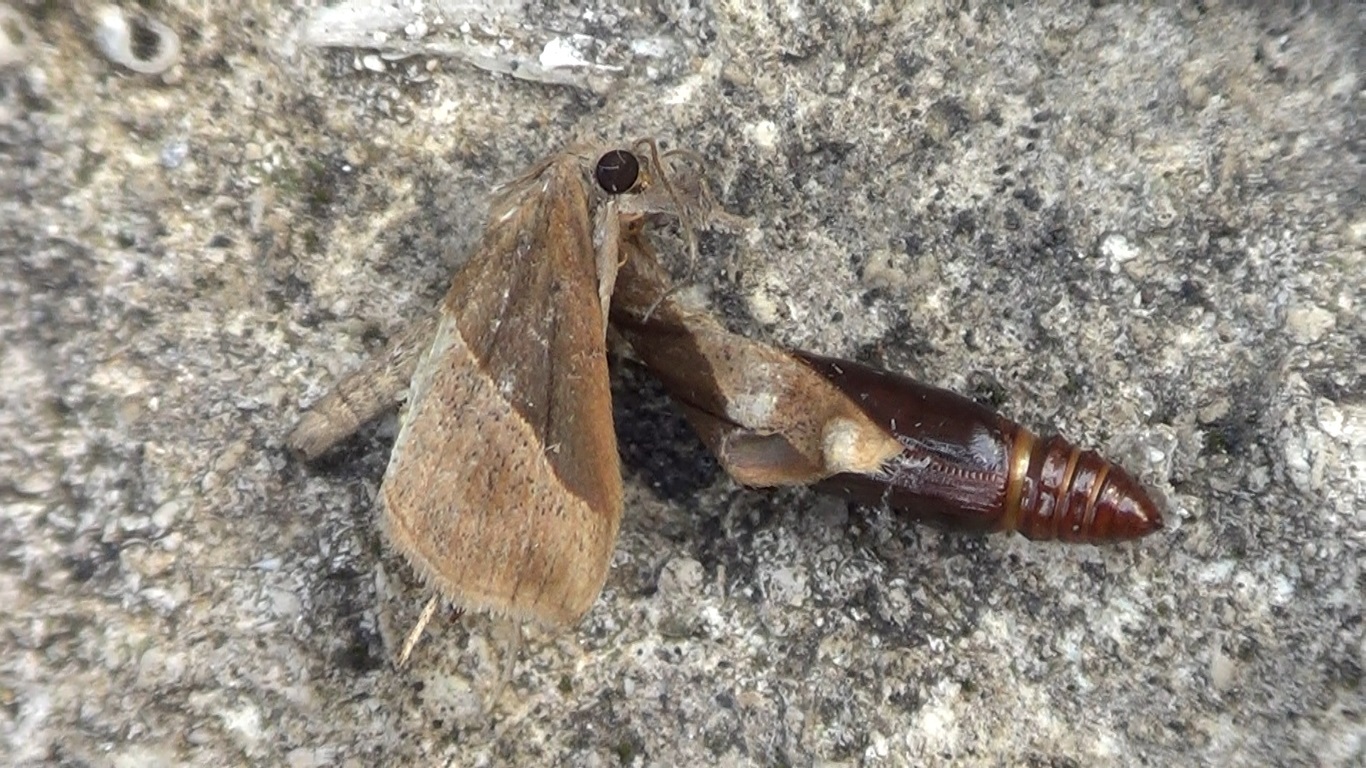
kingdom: Animalia
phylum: Arthropoda
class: Insecta
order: Lepidoptera
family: Erebidae
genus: Hypena
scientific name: Hypena lividalis
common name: Chevron snout
